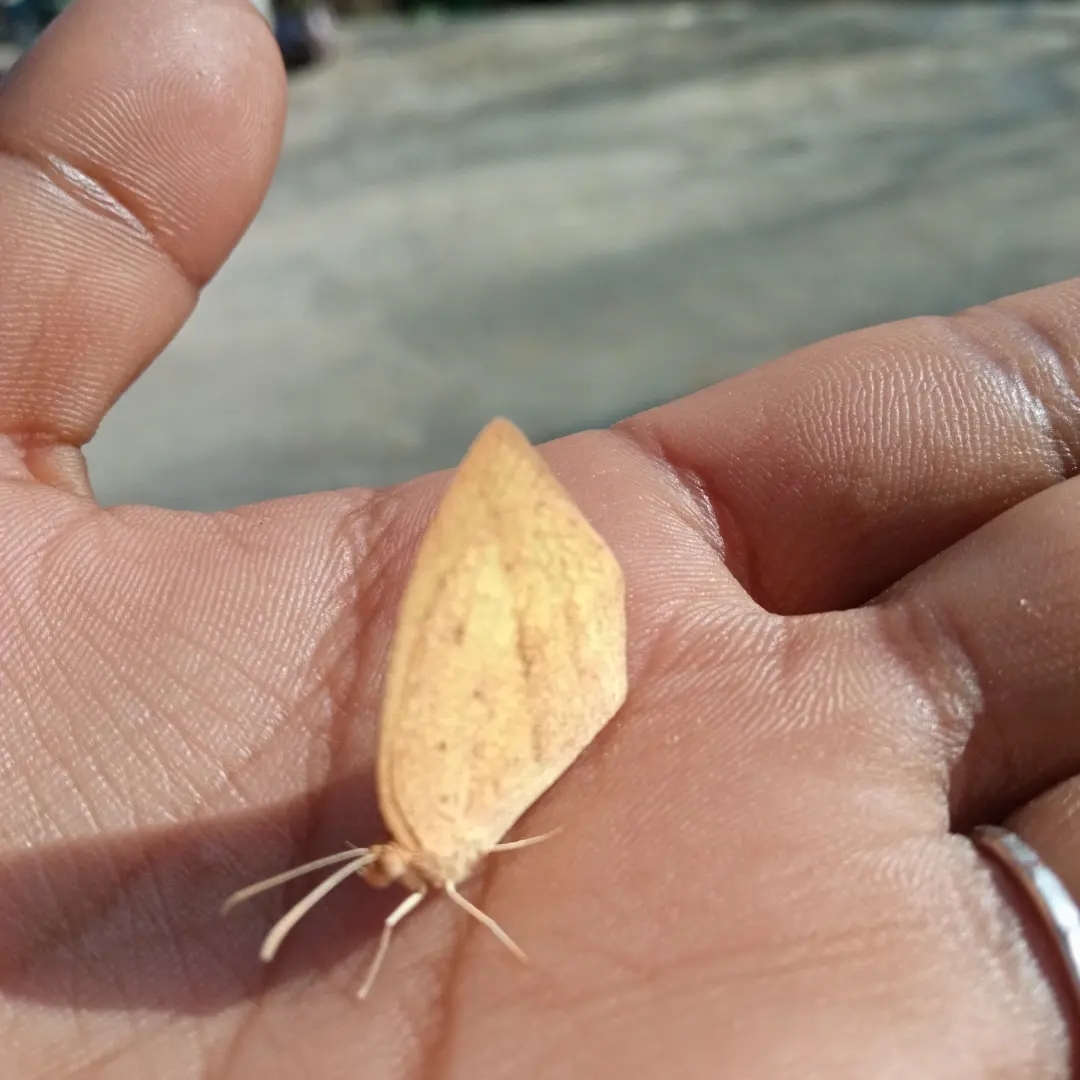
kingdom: Animalia
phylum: Arthropoda
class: Insecta
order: Lepidoptera
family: Pieridae
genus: Eurema
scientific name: Eurema laeta
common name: Spotless grass yellow
